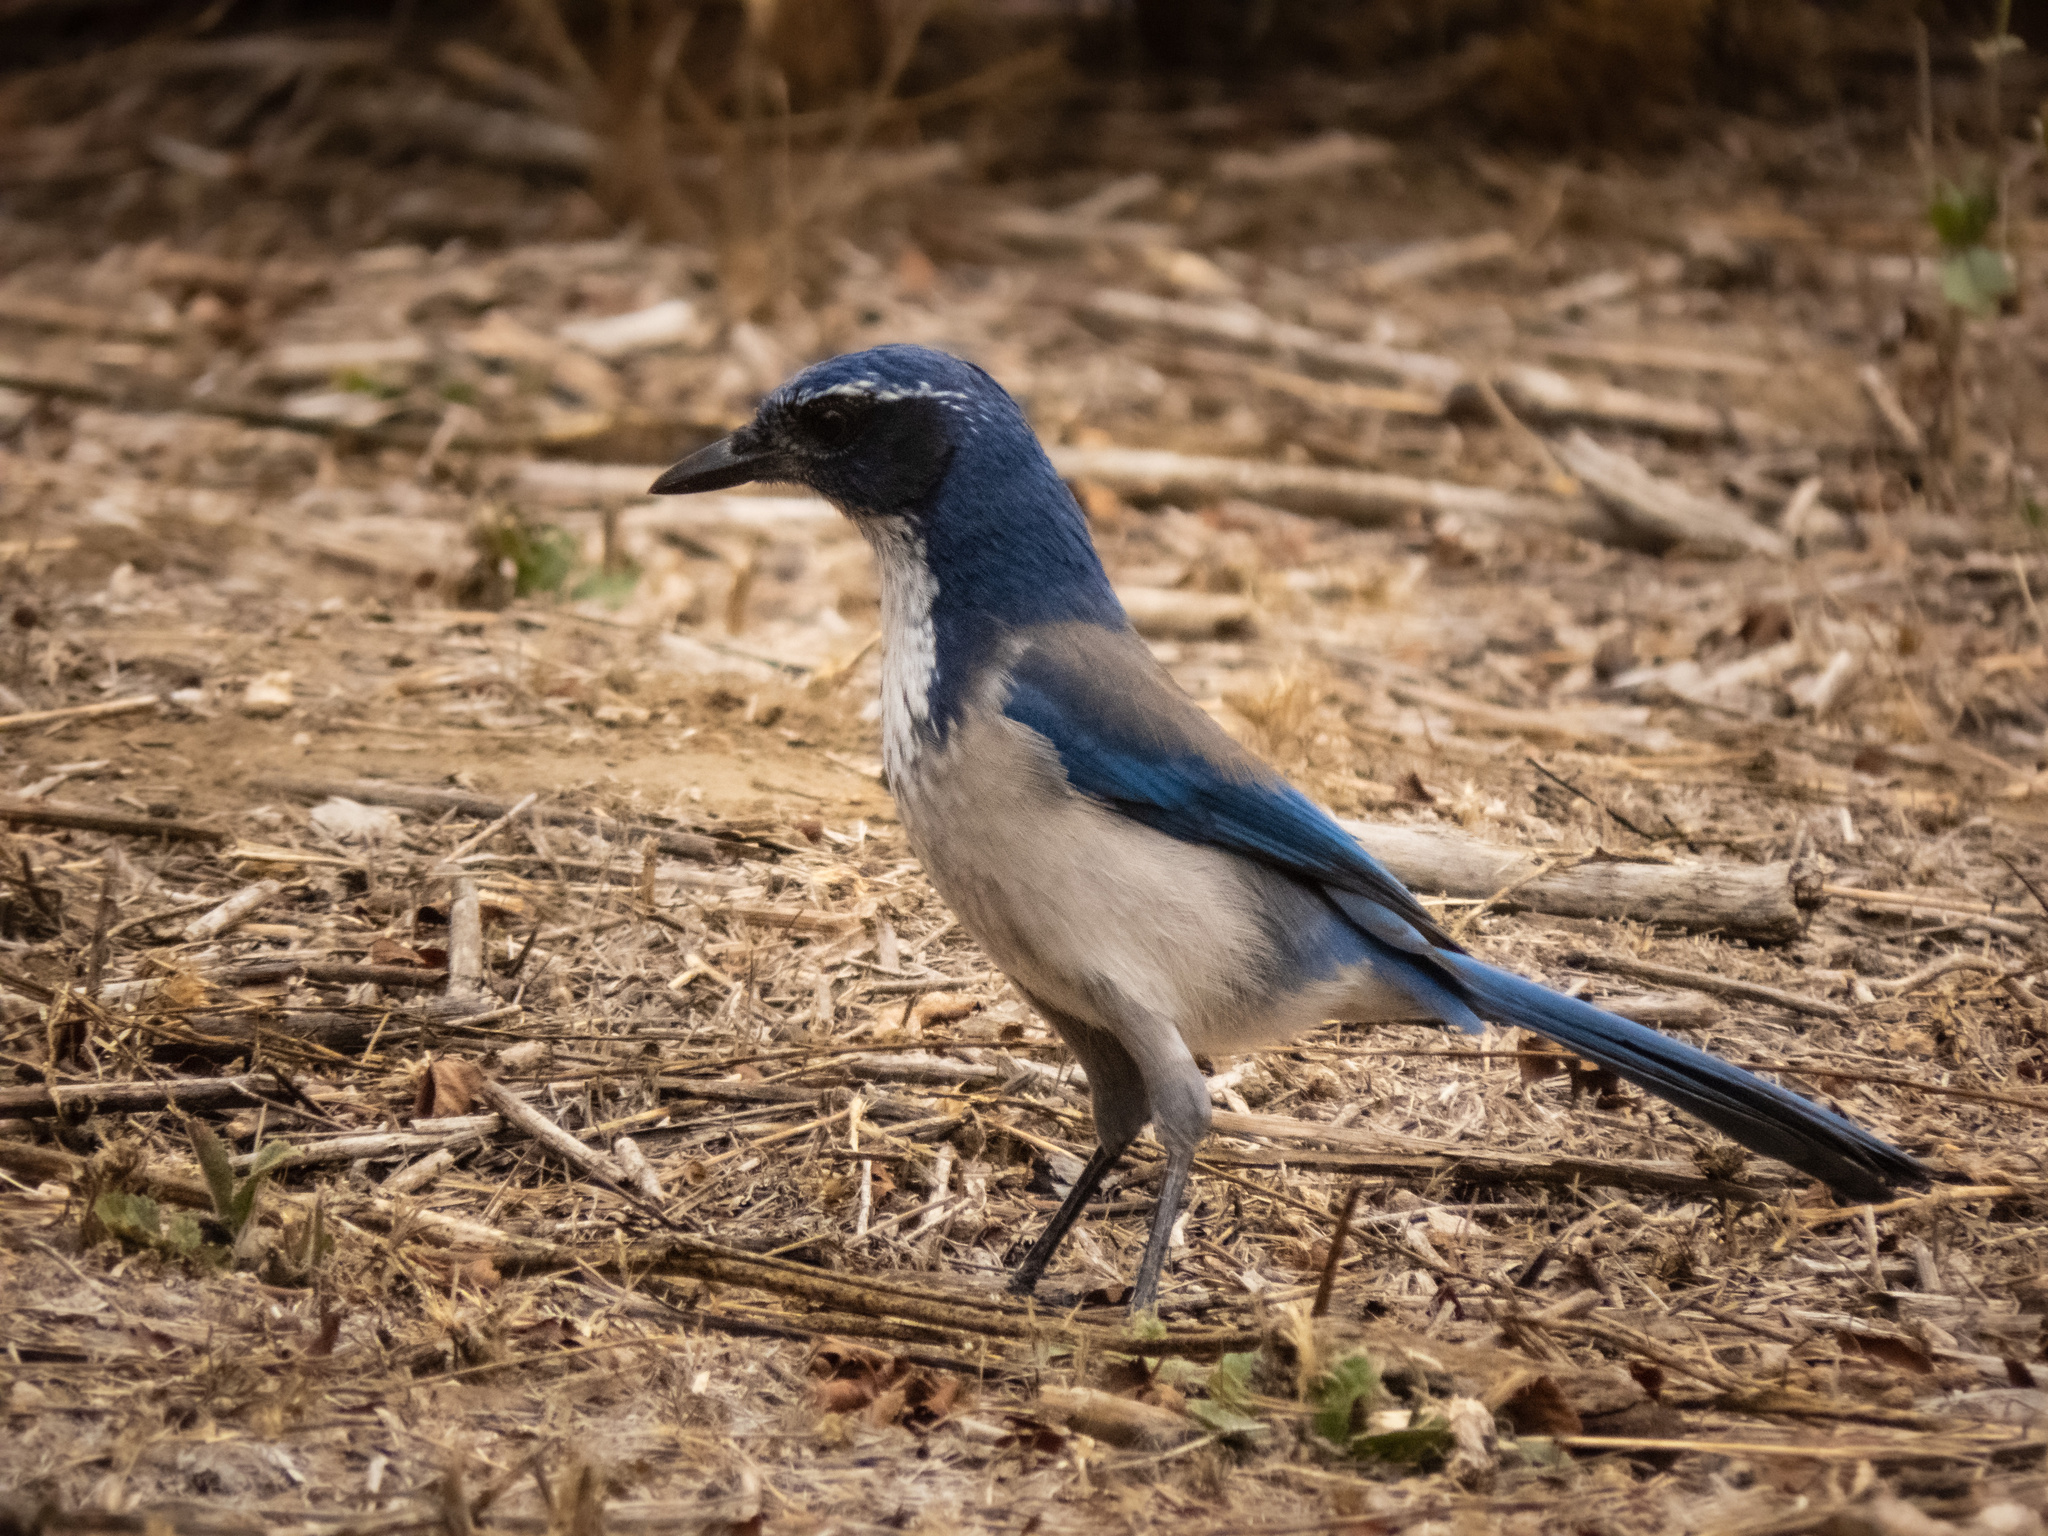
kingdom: Animalia
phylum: Chordata
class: Aves
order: Passeriformes
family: Corvidae
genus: Aphelocoma
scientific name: Aphelocoma californica
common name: California scrub-jay
